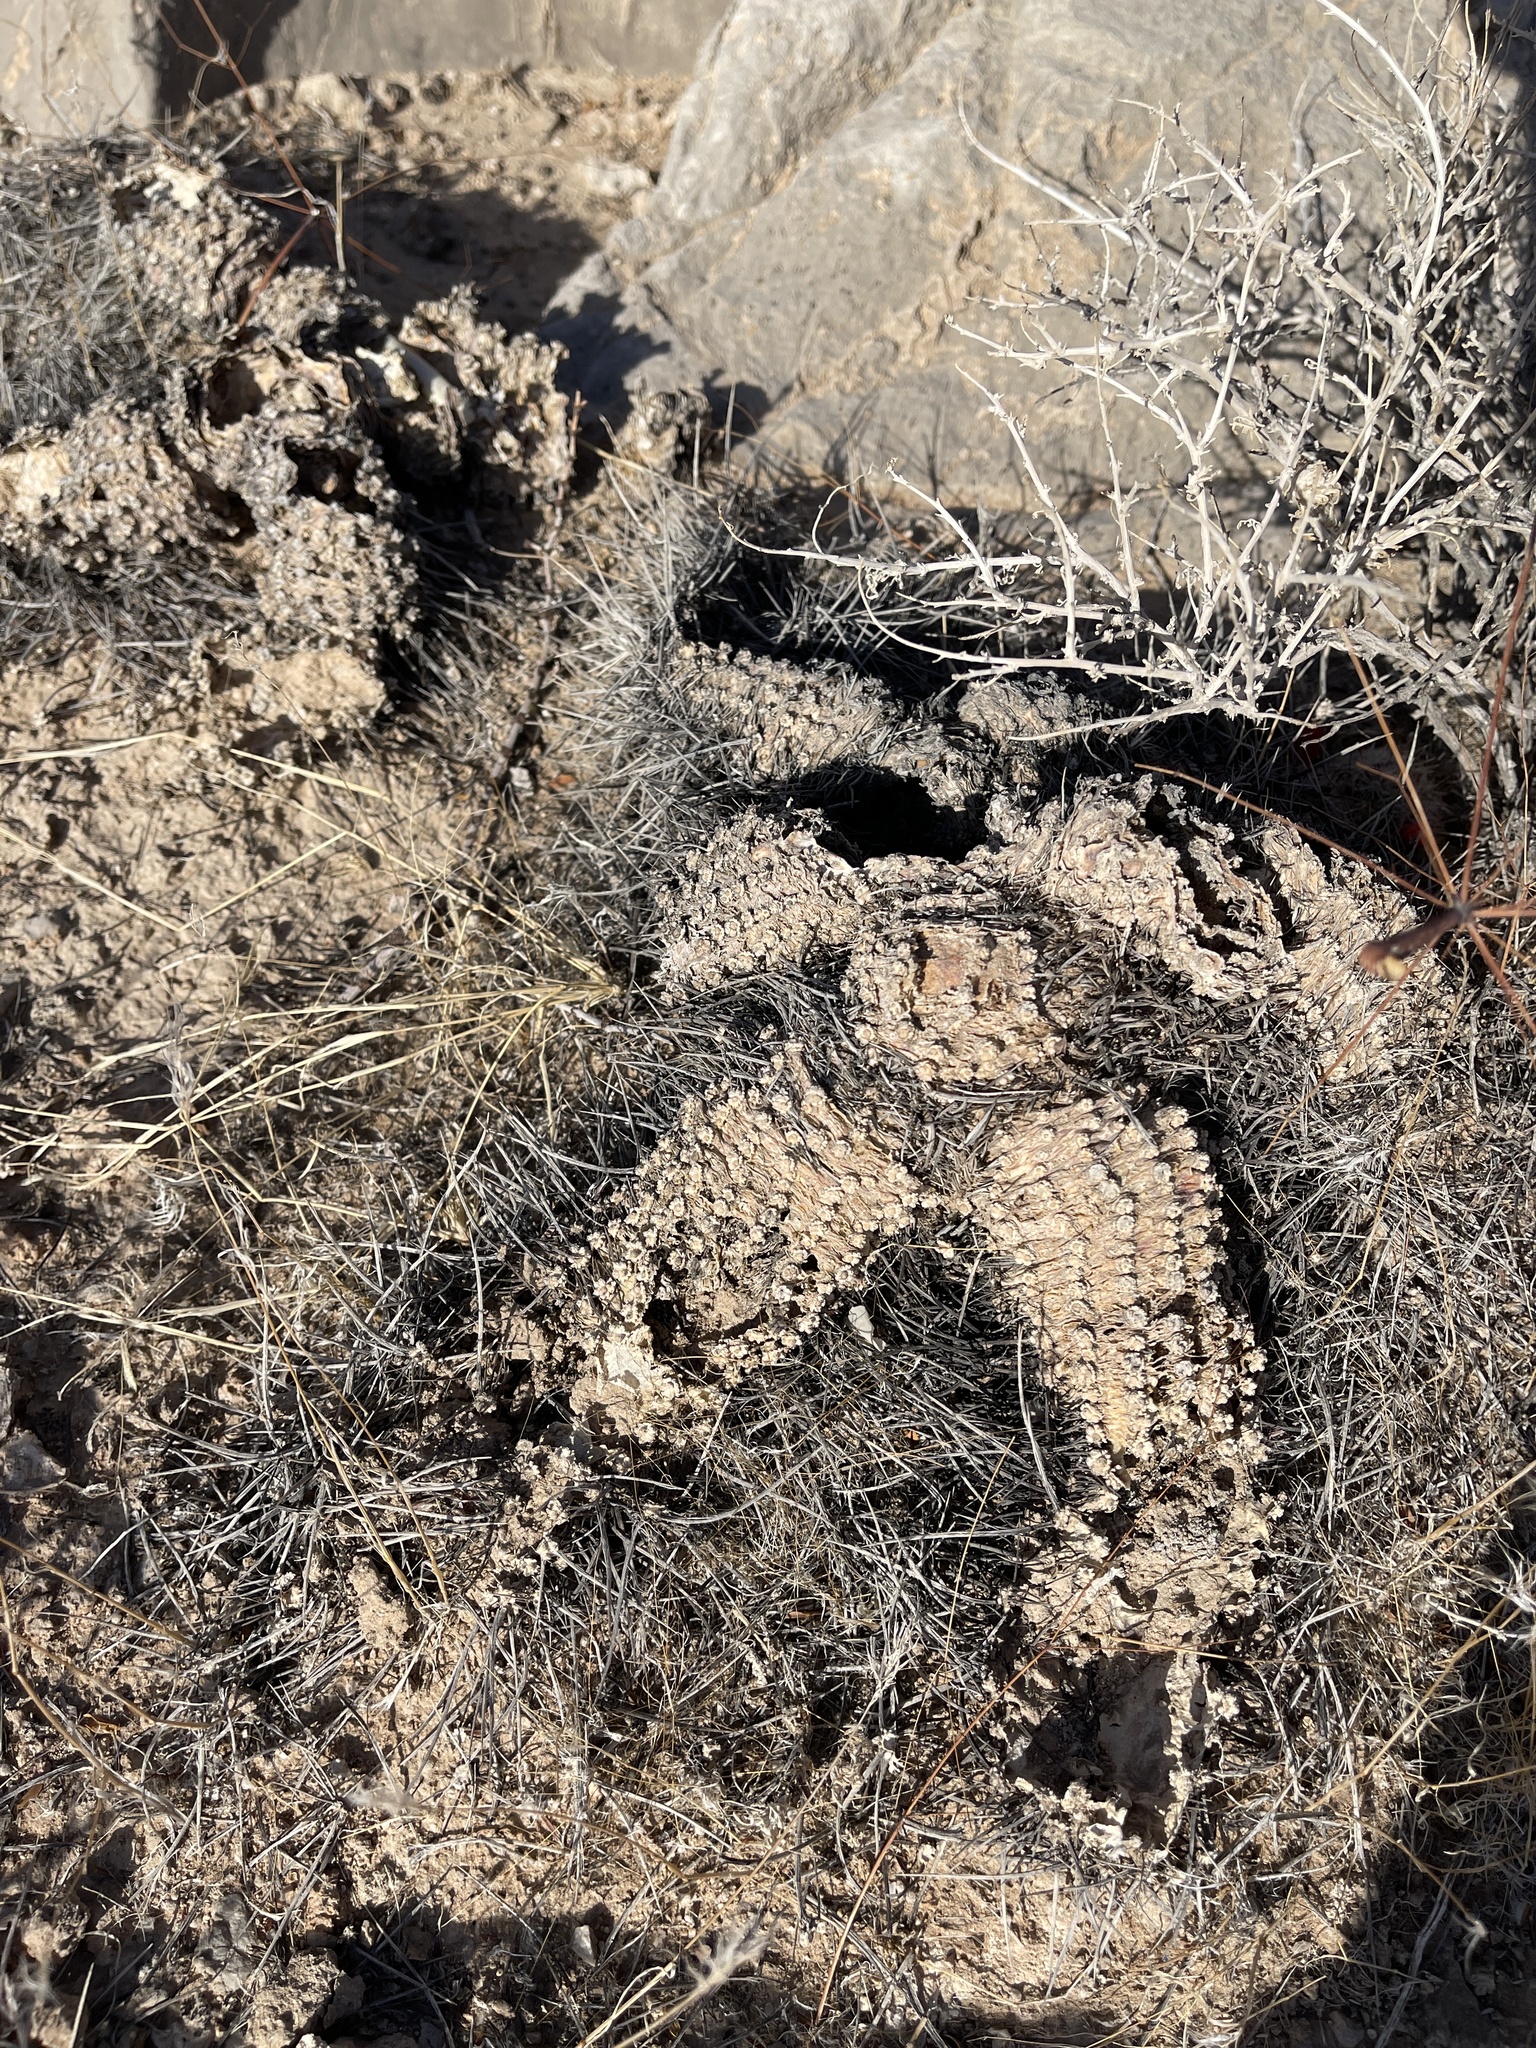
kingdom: Plantae
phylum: Tracheophyta
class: Magnoliopsida
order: Caryophyllales
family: Cactaceae
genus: Echinocereus
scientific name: Echinocereus engelmannii
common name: Engelmann's hedgehog cactus
